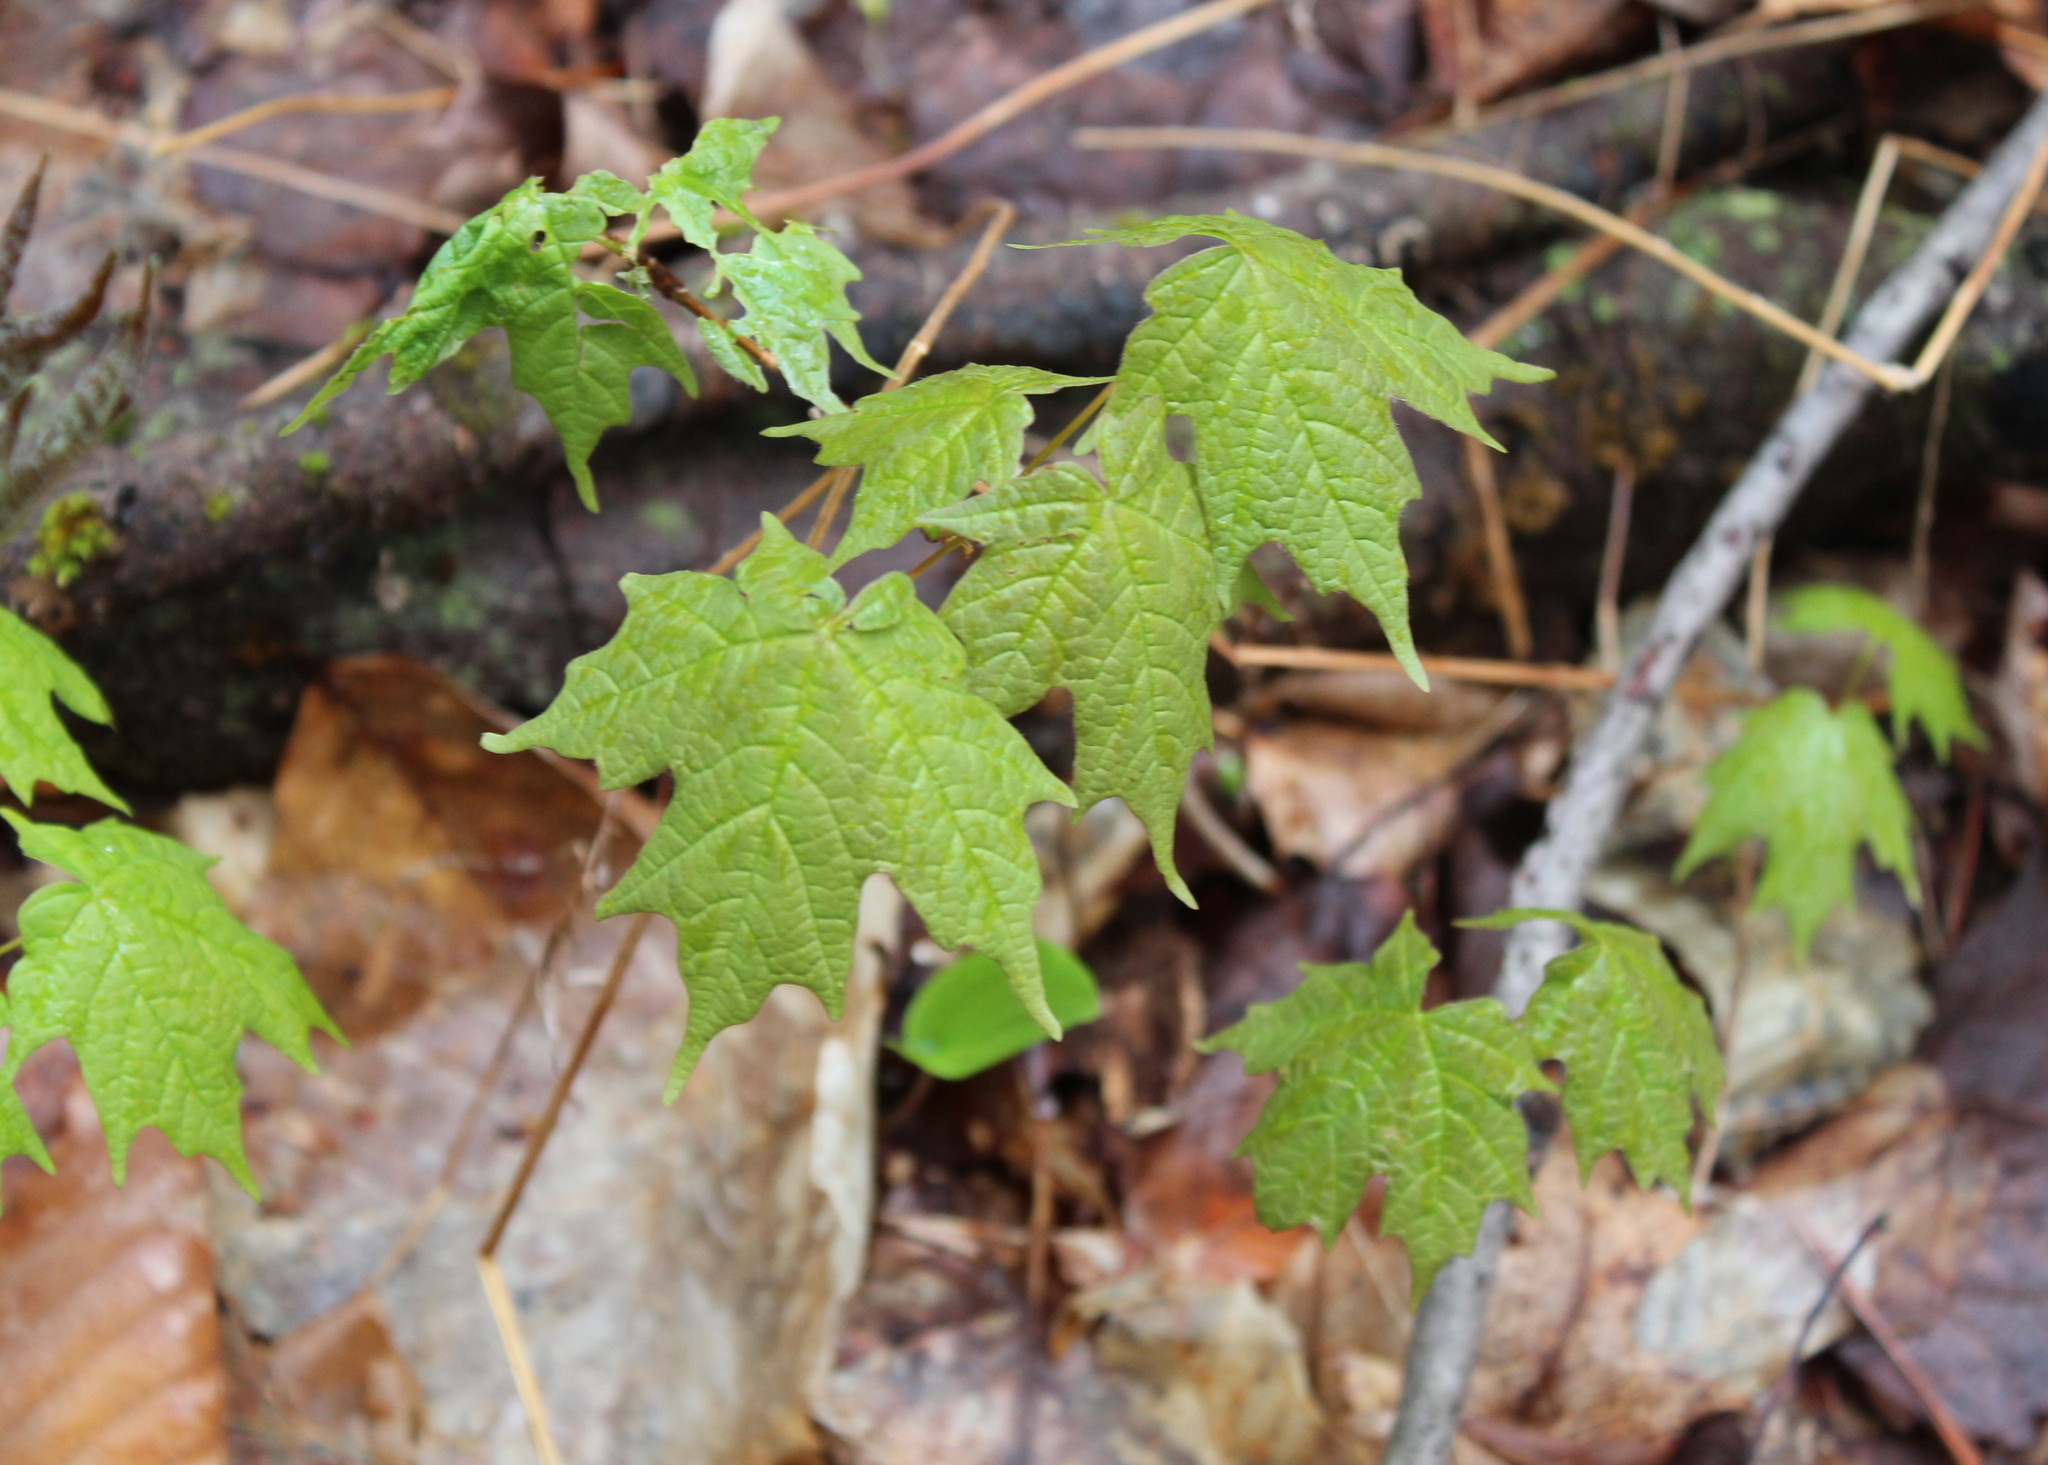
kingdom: Plantae
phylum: Tracheophyta
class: Magnoliopsida
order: Sapindales
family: Sapindaceae
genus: Acer
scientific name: Acer saccharum
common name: Sugar maple
